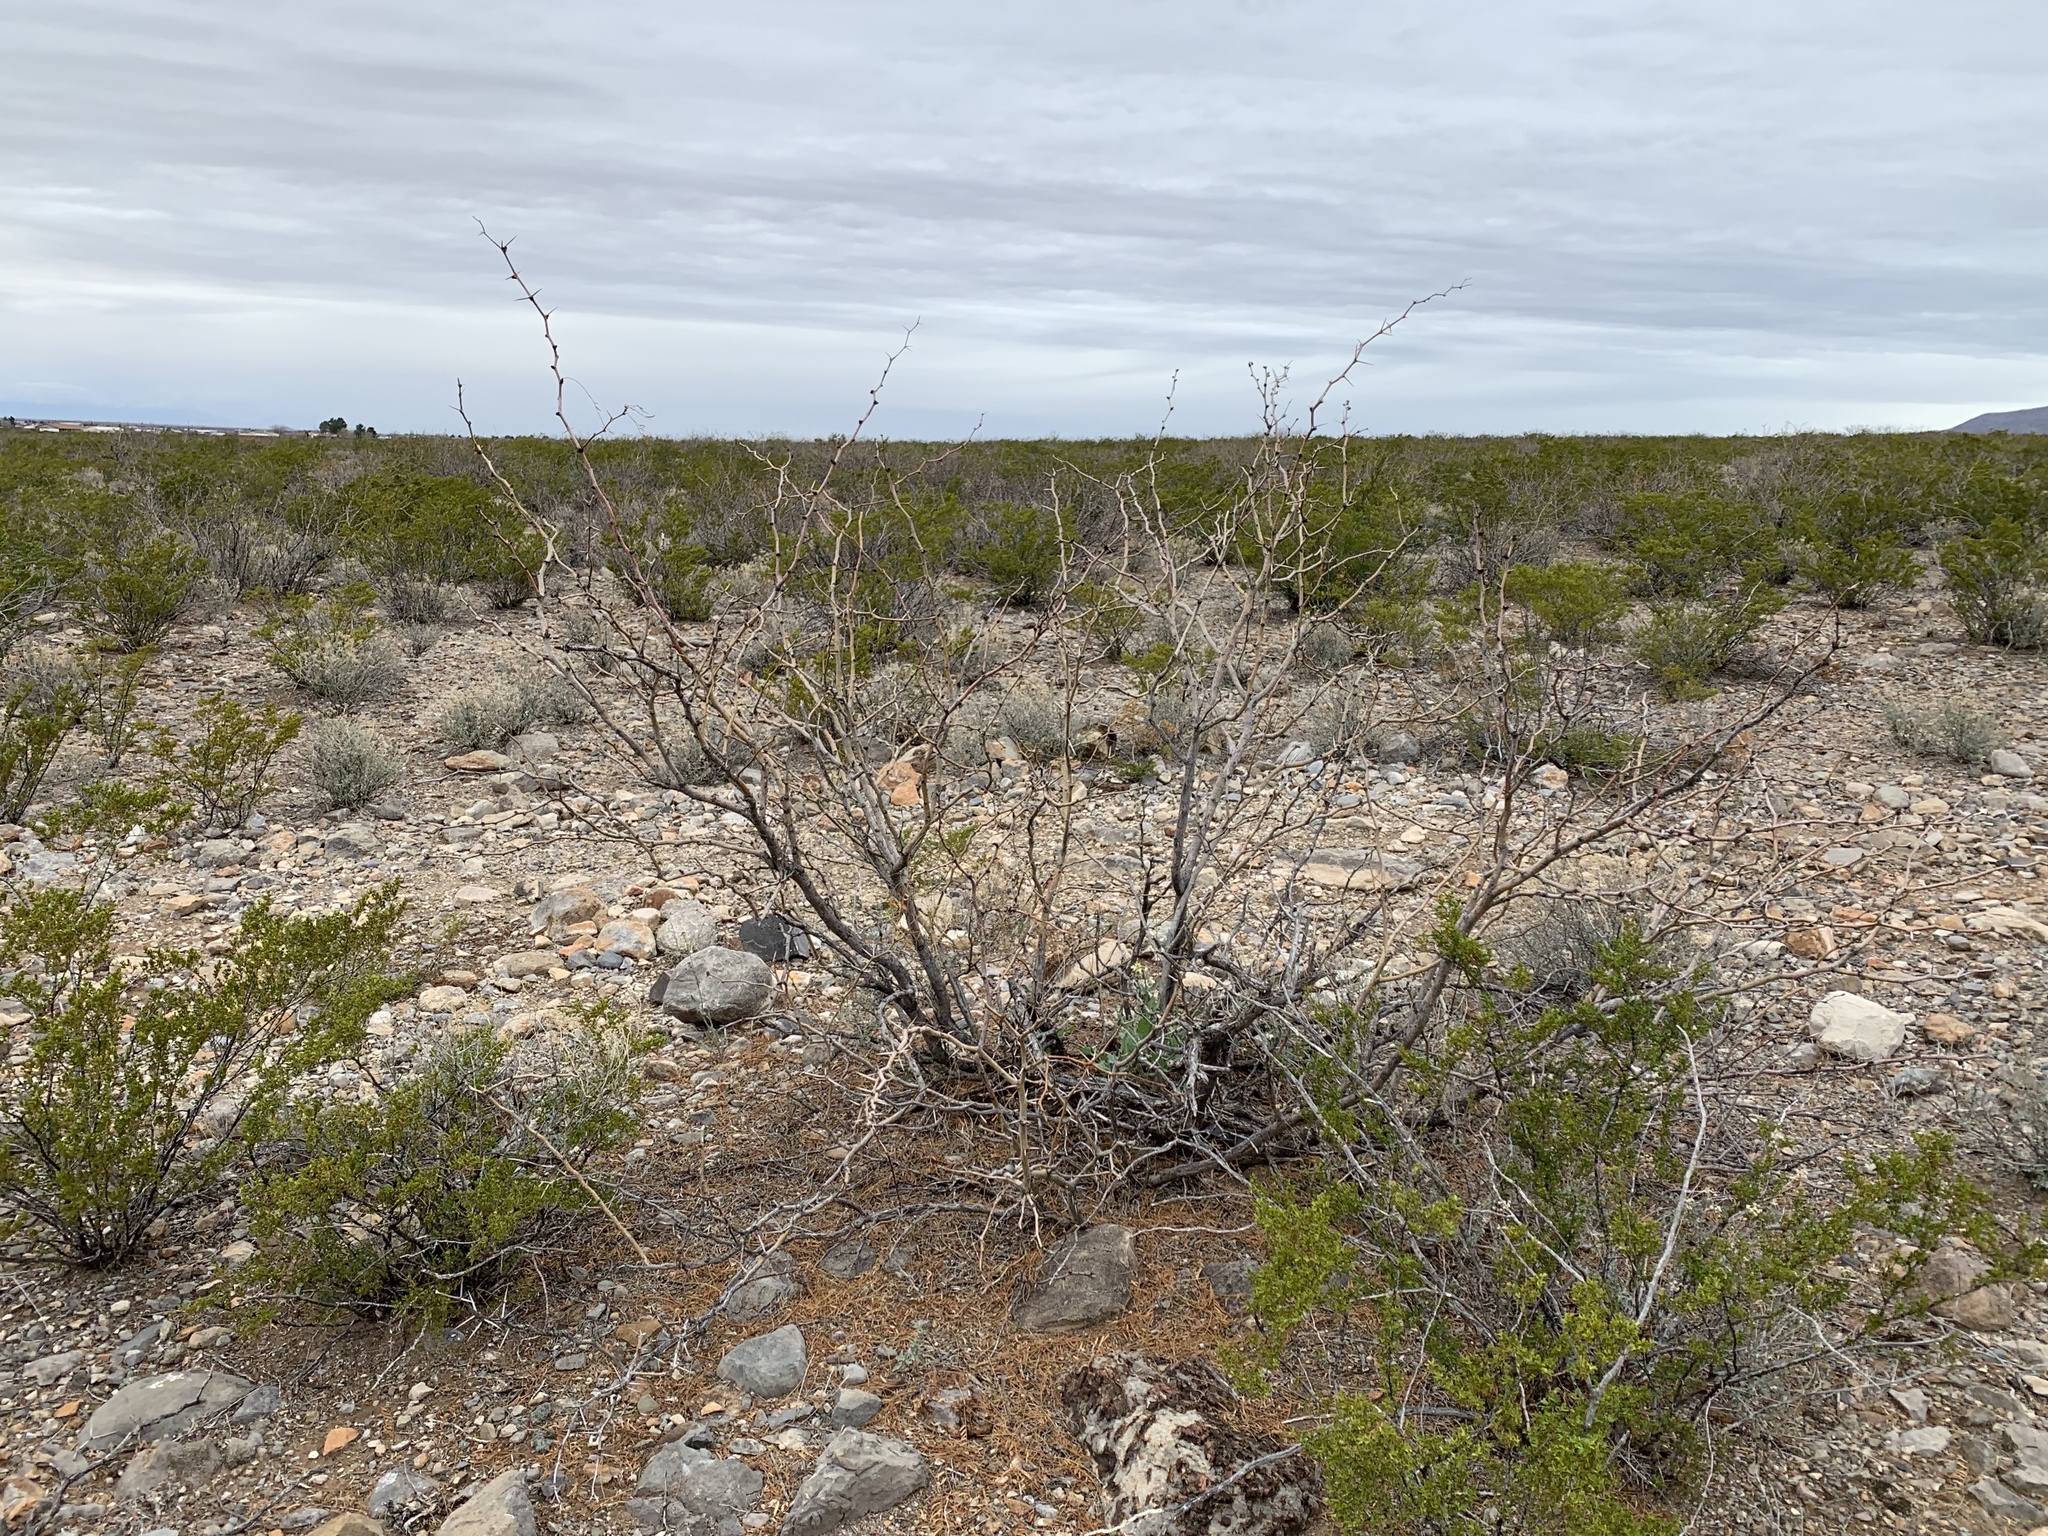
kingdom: Plantae
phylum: Tracheophyta
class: Magnoliopsida
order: Fabales
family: Fabaceae
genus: Prosopis
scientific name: Prosopis glandulosa
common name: Honey mesquite
